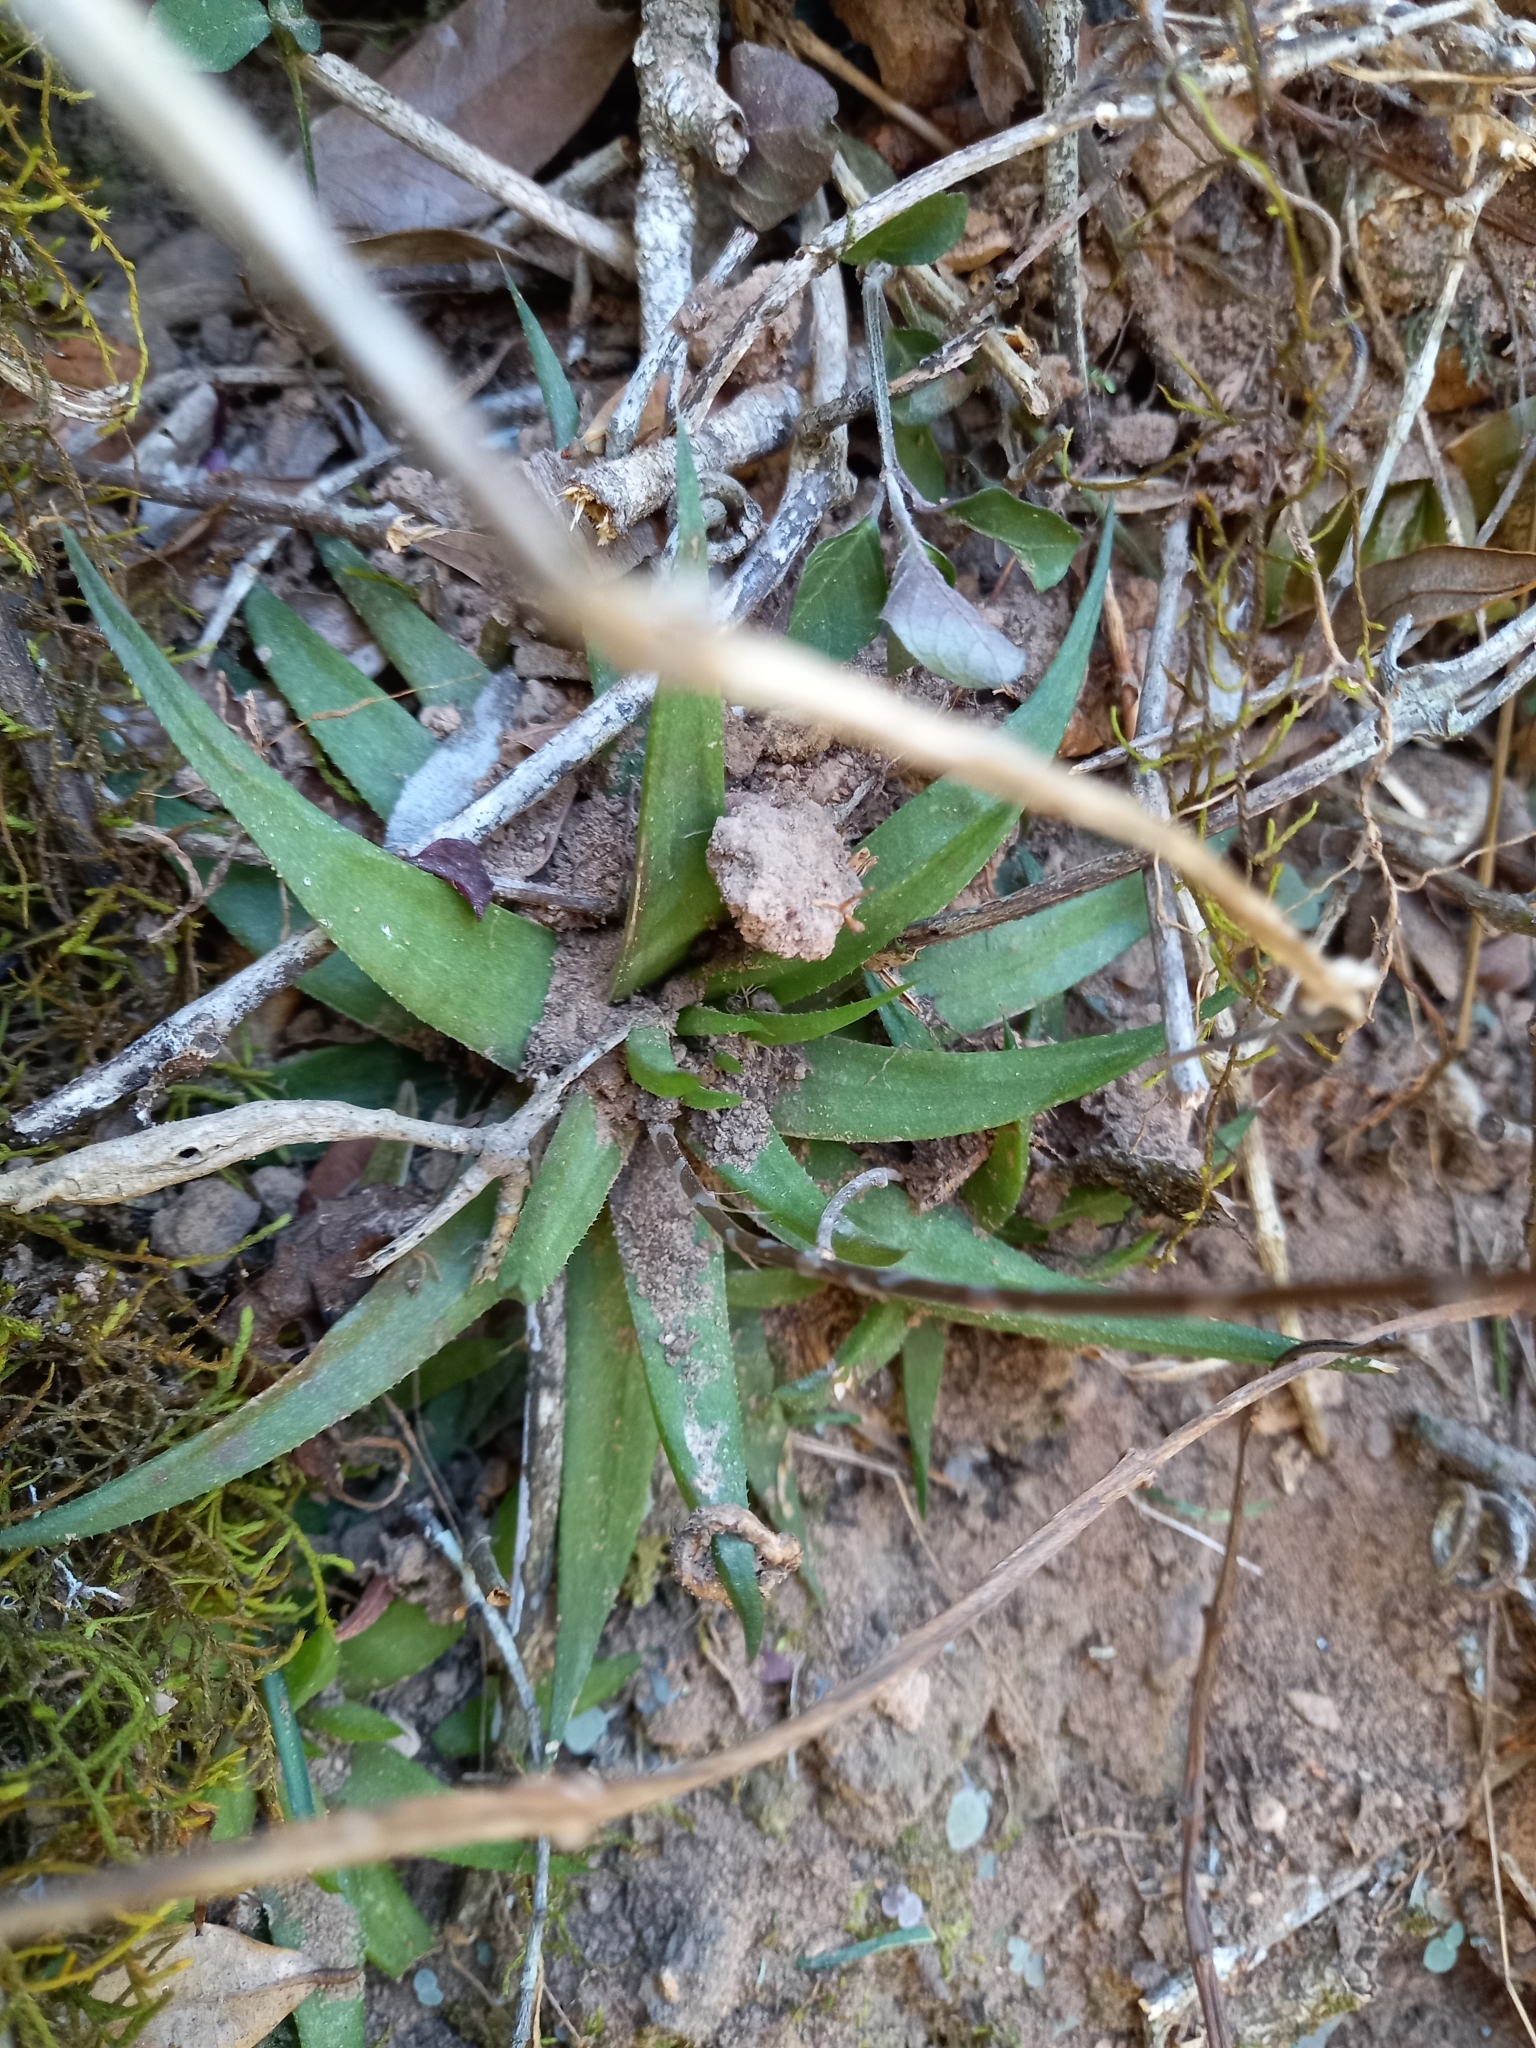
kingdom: Plantae
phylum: Tracheophyta
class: Liliopsida
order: Asparagales
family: Asphodelaceae
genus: Haworthia
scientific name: Haworthia angustifolia
